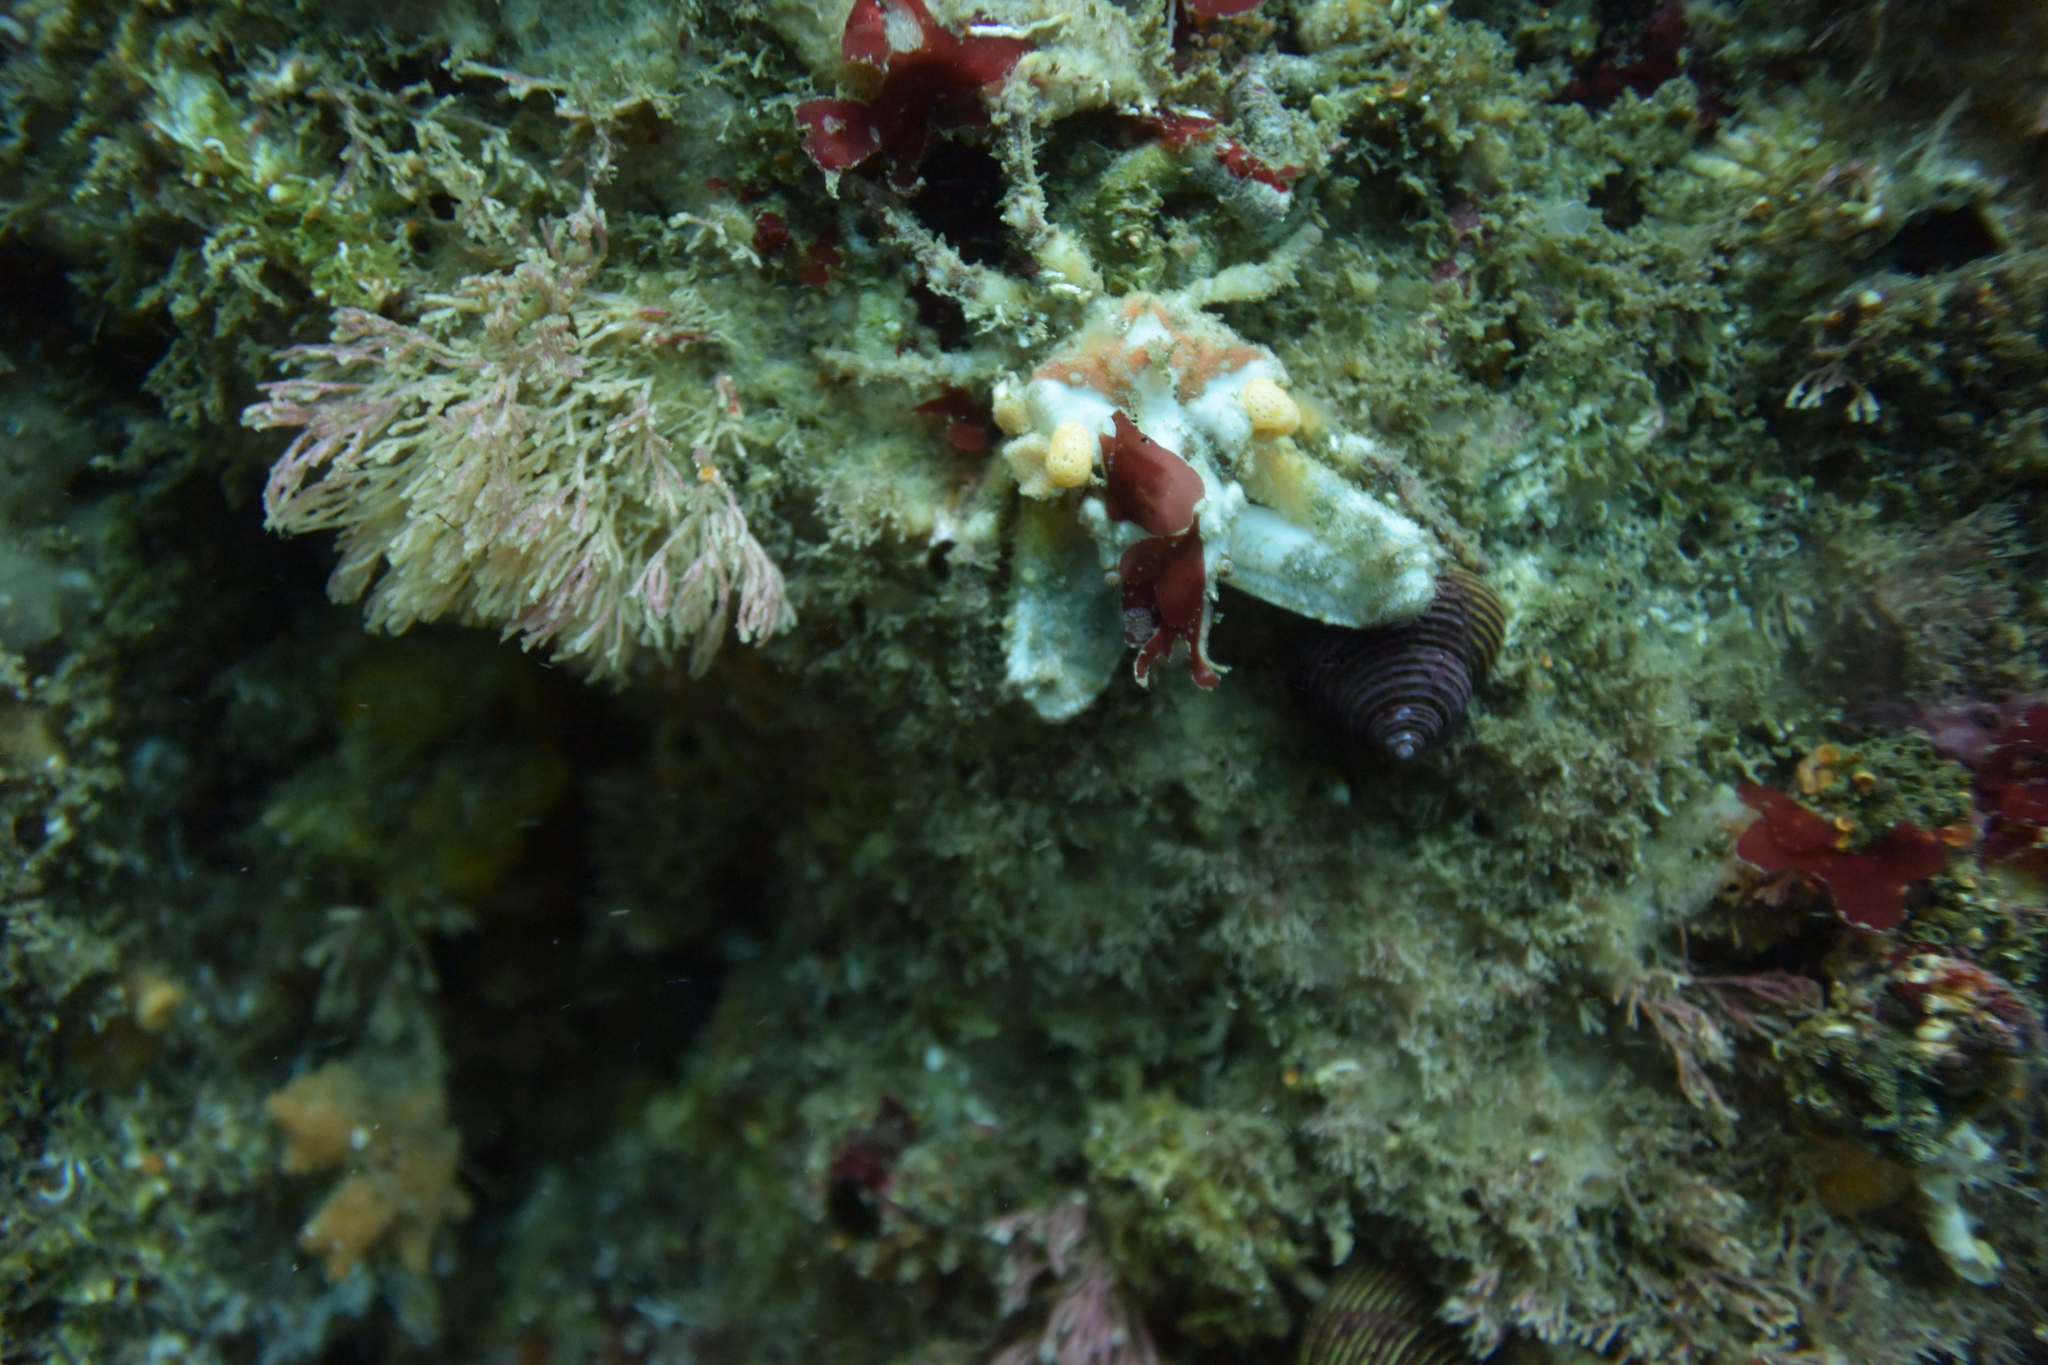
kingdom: Animalia
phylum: Arthropoda
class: Malacostraca
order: Decapoda
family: Epialtidae
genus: Scyra
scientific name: Scyra acutifrons
